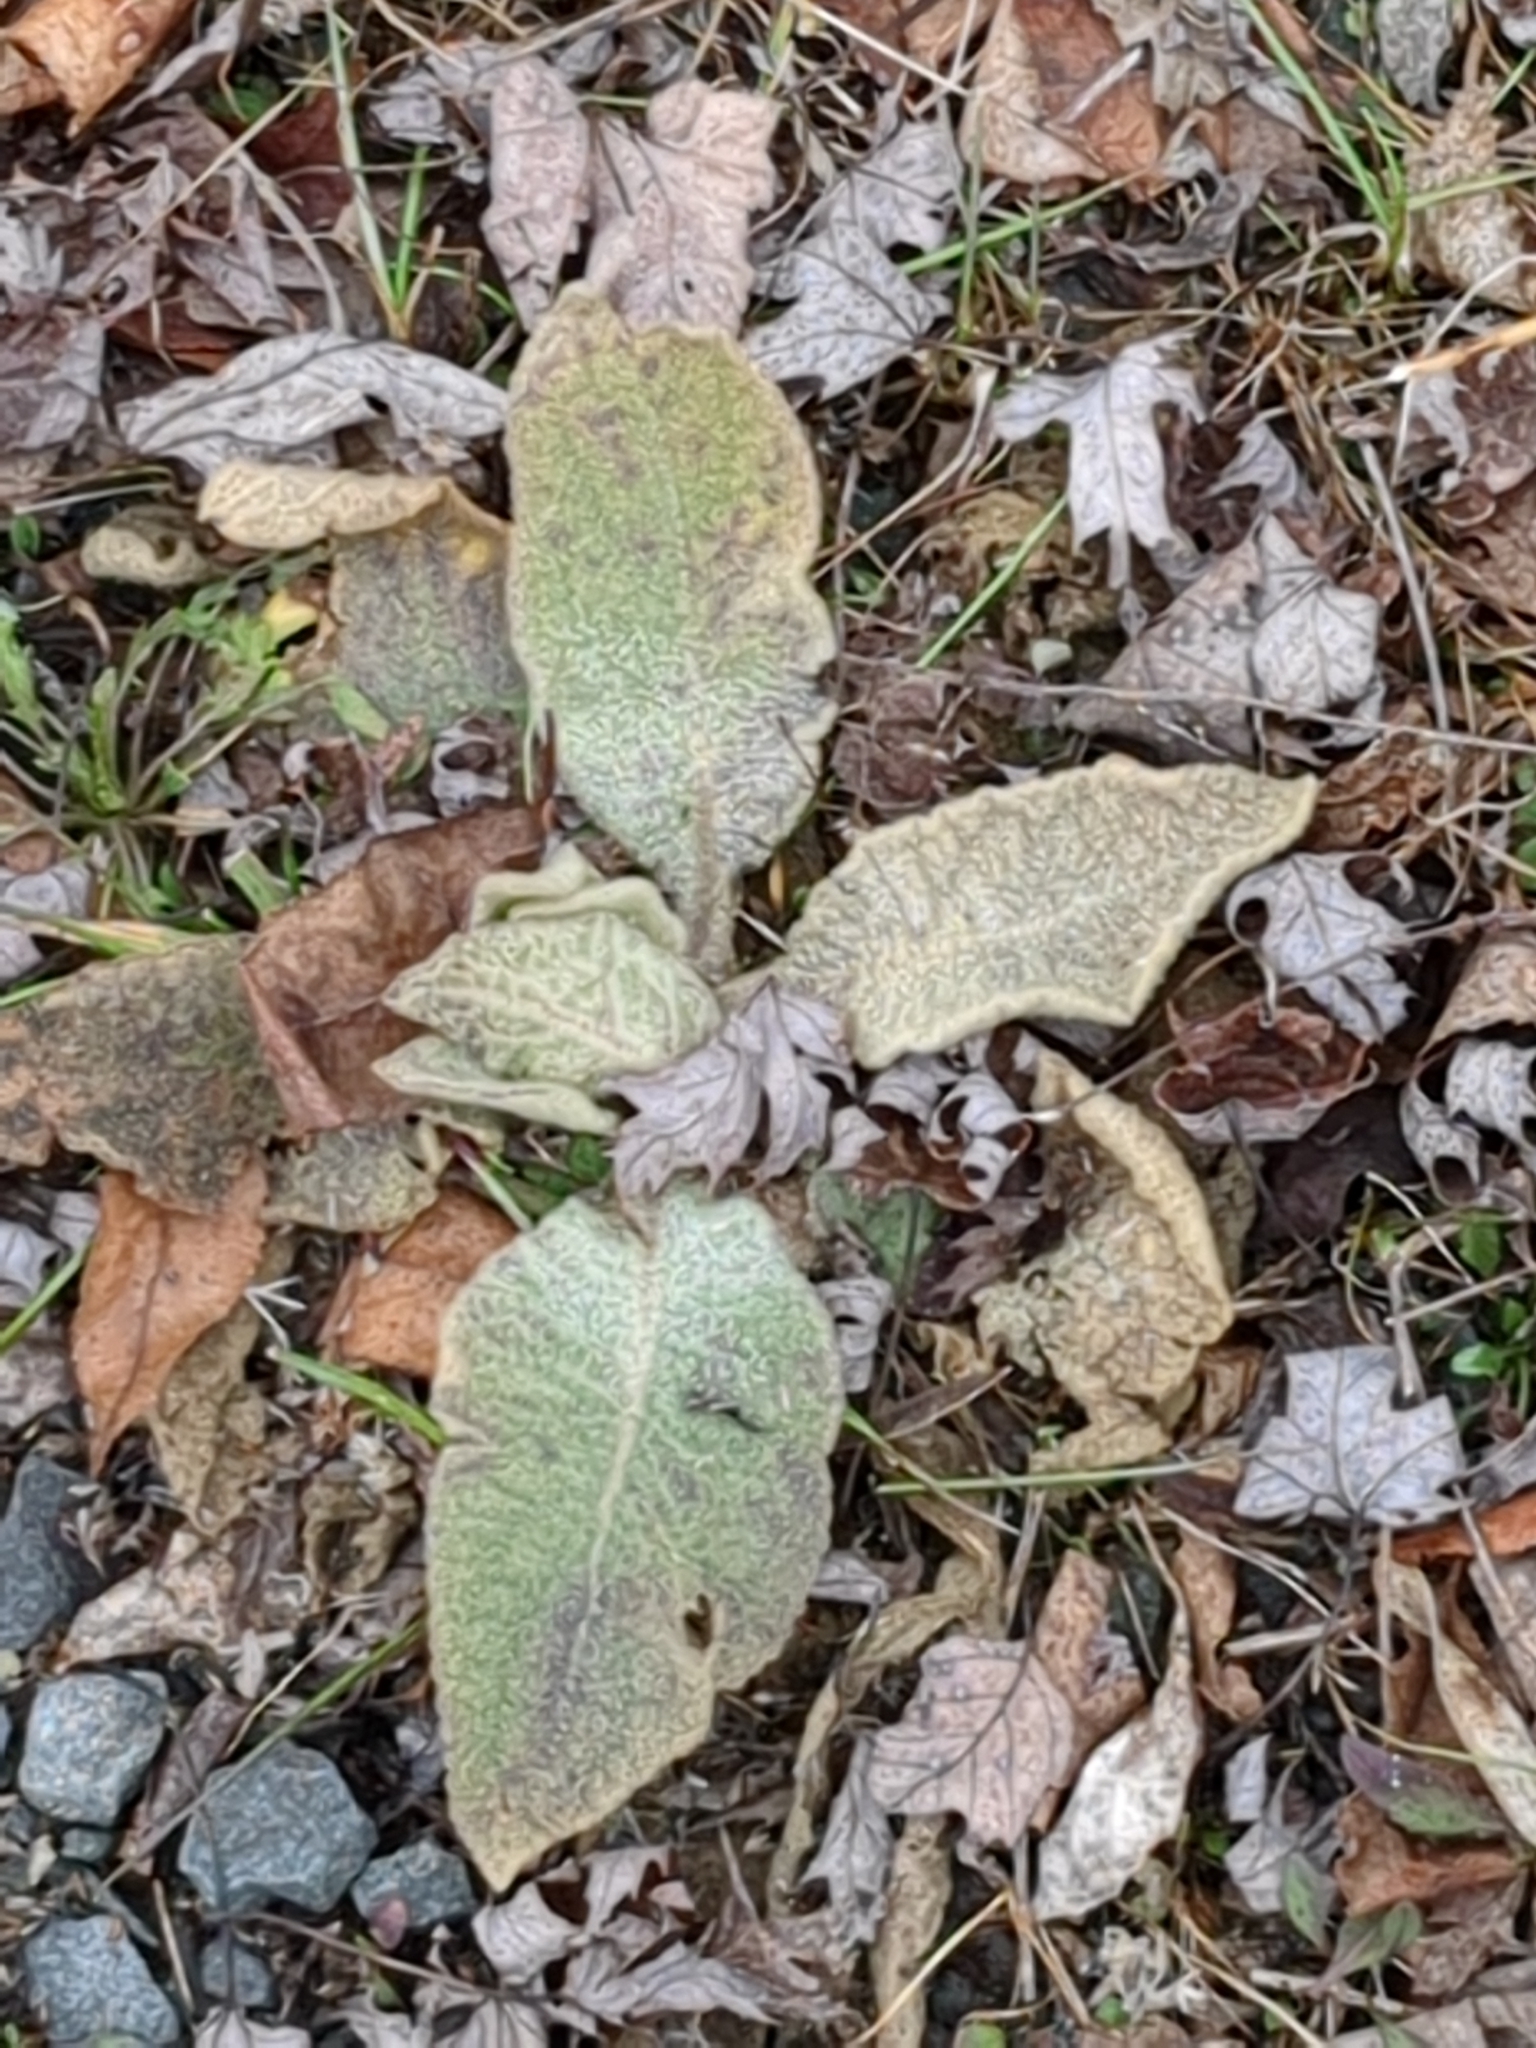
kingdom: Plantae
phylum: Tracheophyta
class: Magnoliopsida
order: Lamiales
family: Scrophulariaceae
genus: Verbascum
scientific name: Verbascum thapsus
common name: Common mullein
